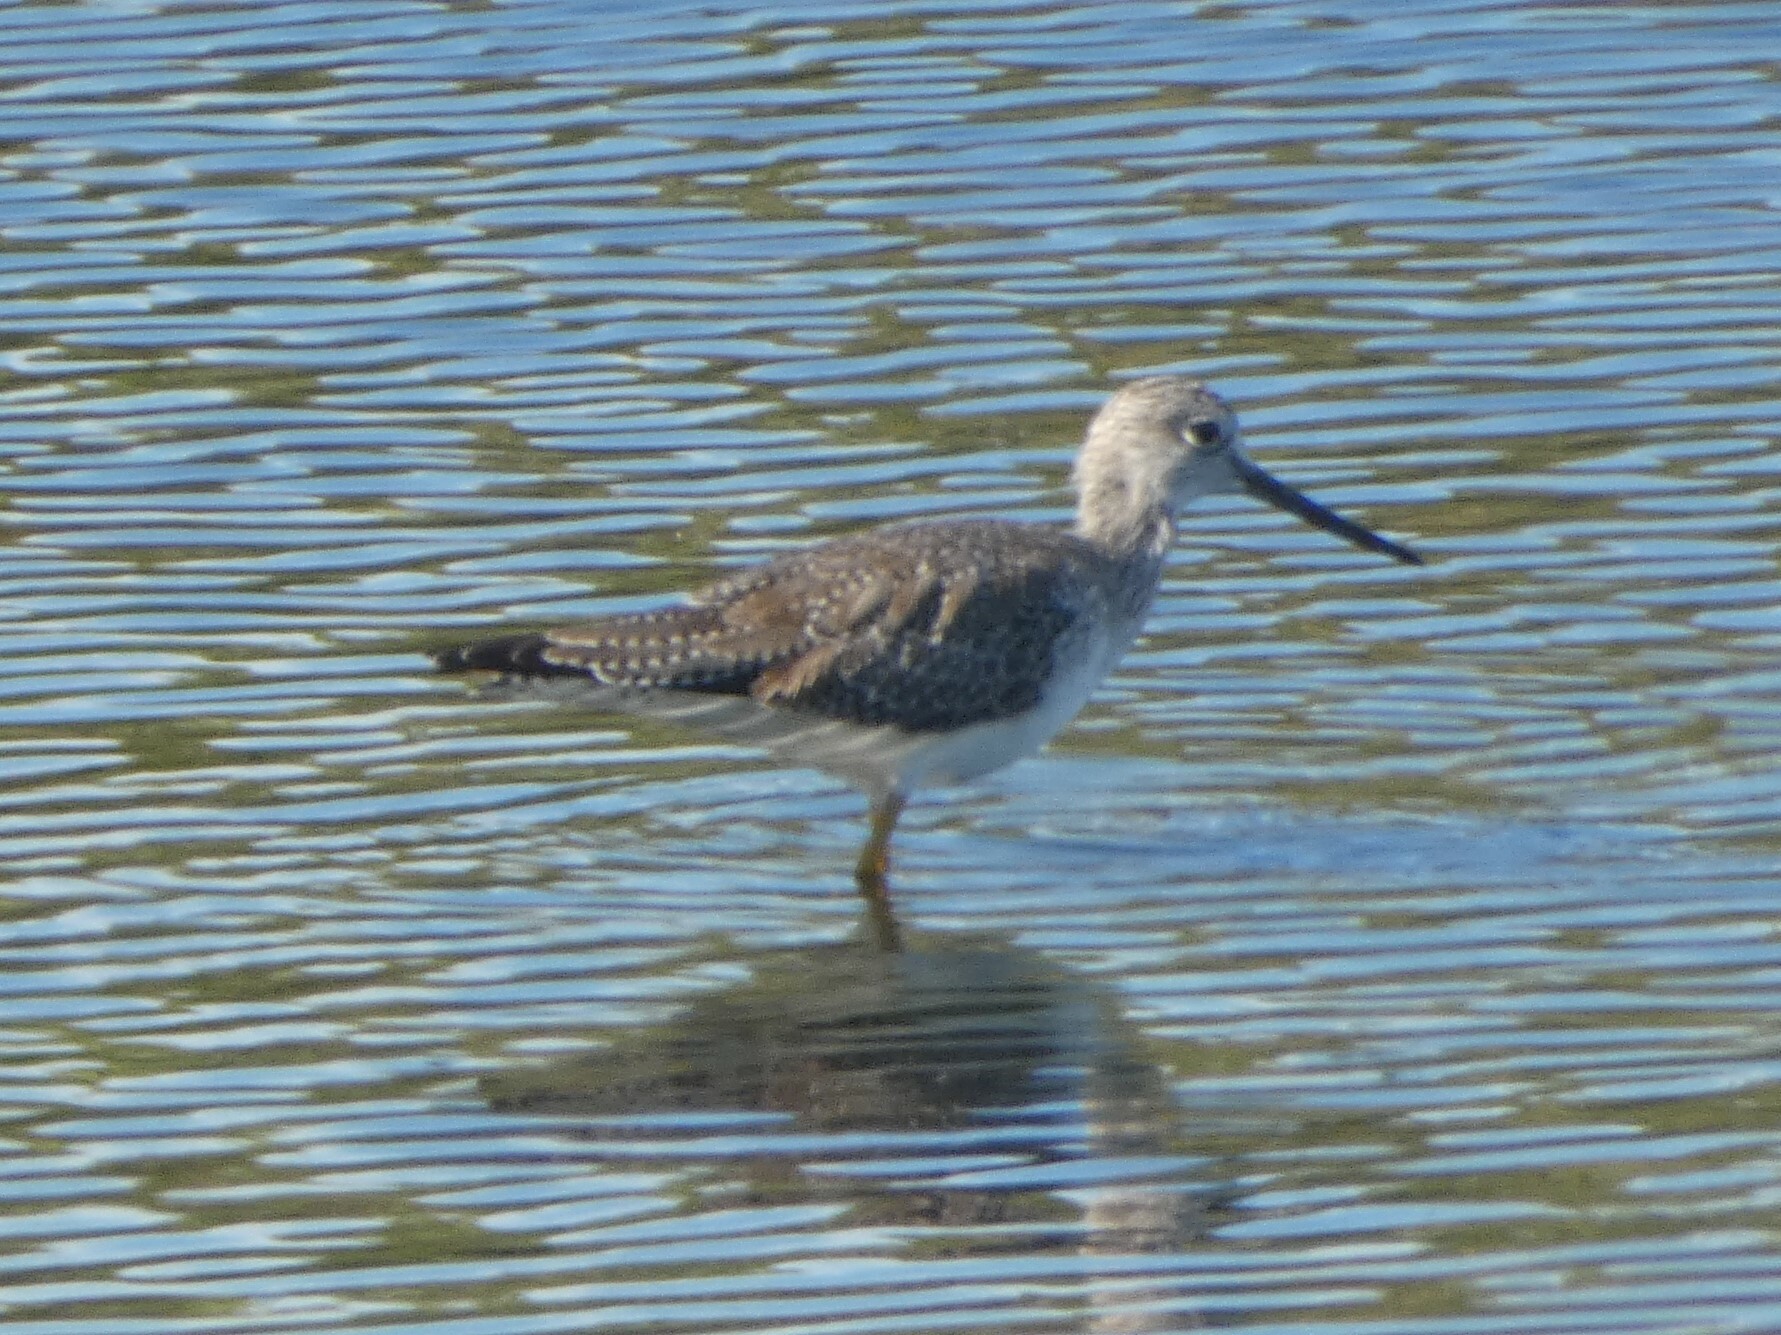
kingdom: Animalia
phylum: Chordata
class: Aves
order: Charadriiformes
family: Scolopacidae
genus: Tringa
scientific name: Tringa melanoleuca
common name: Greater yellowlegs
